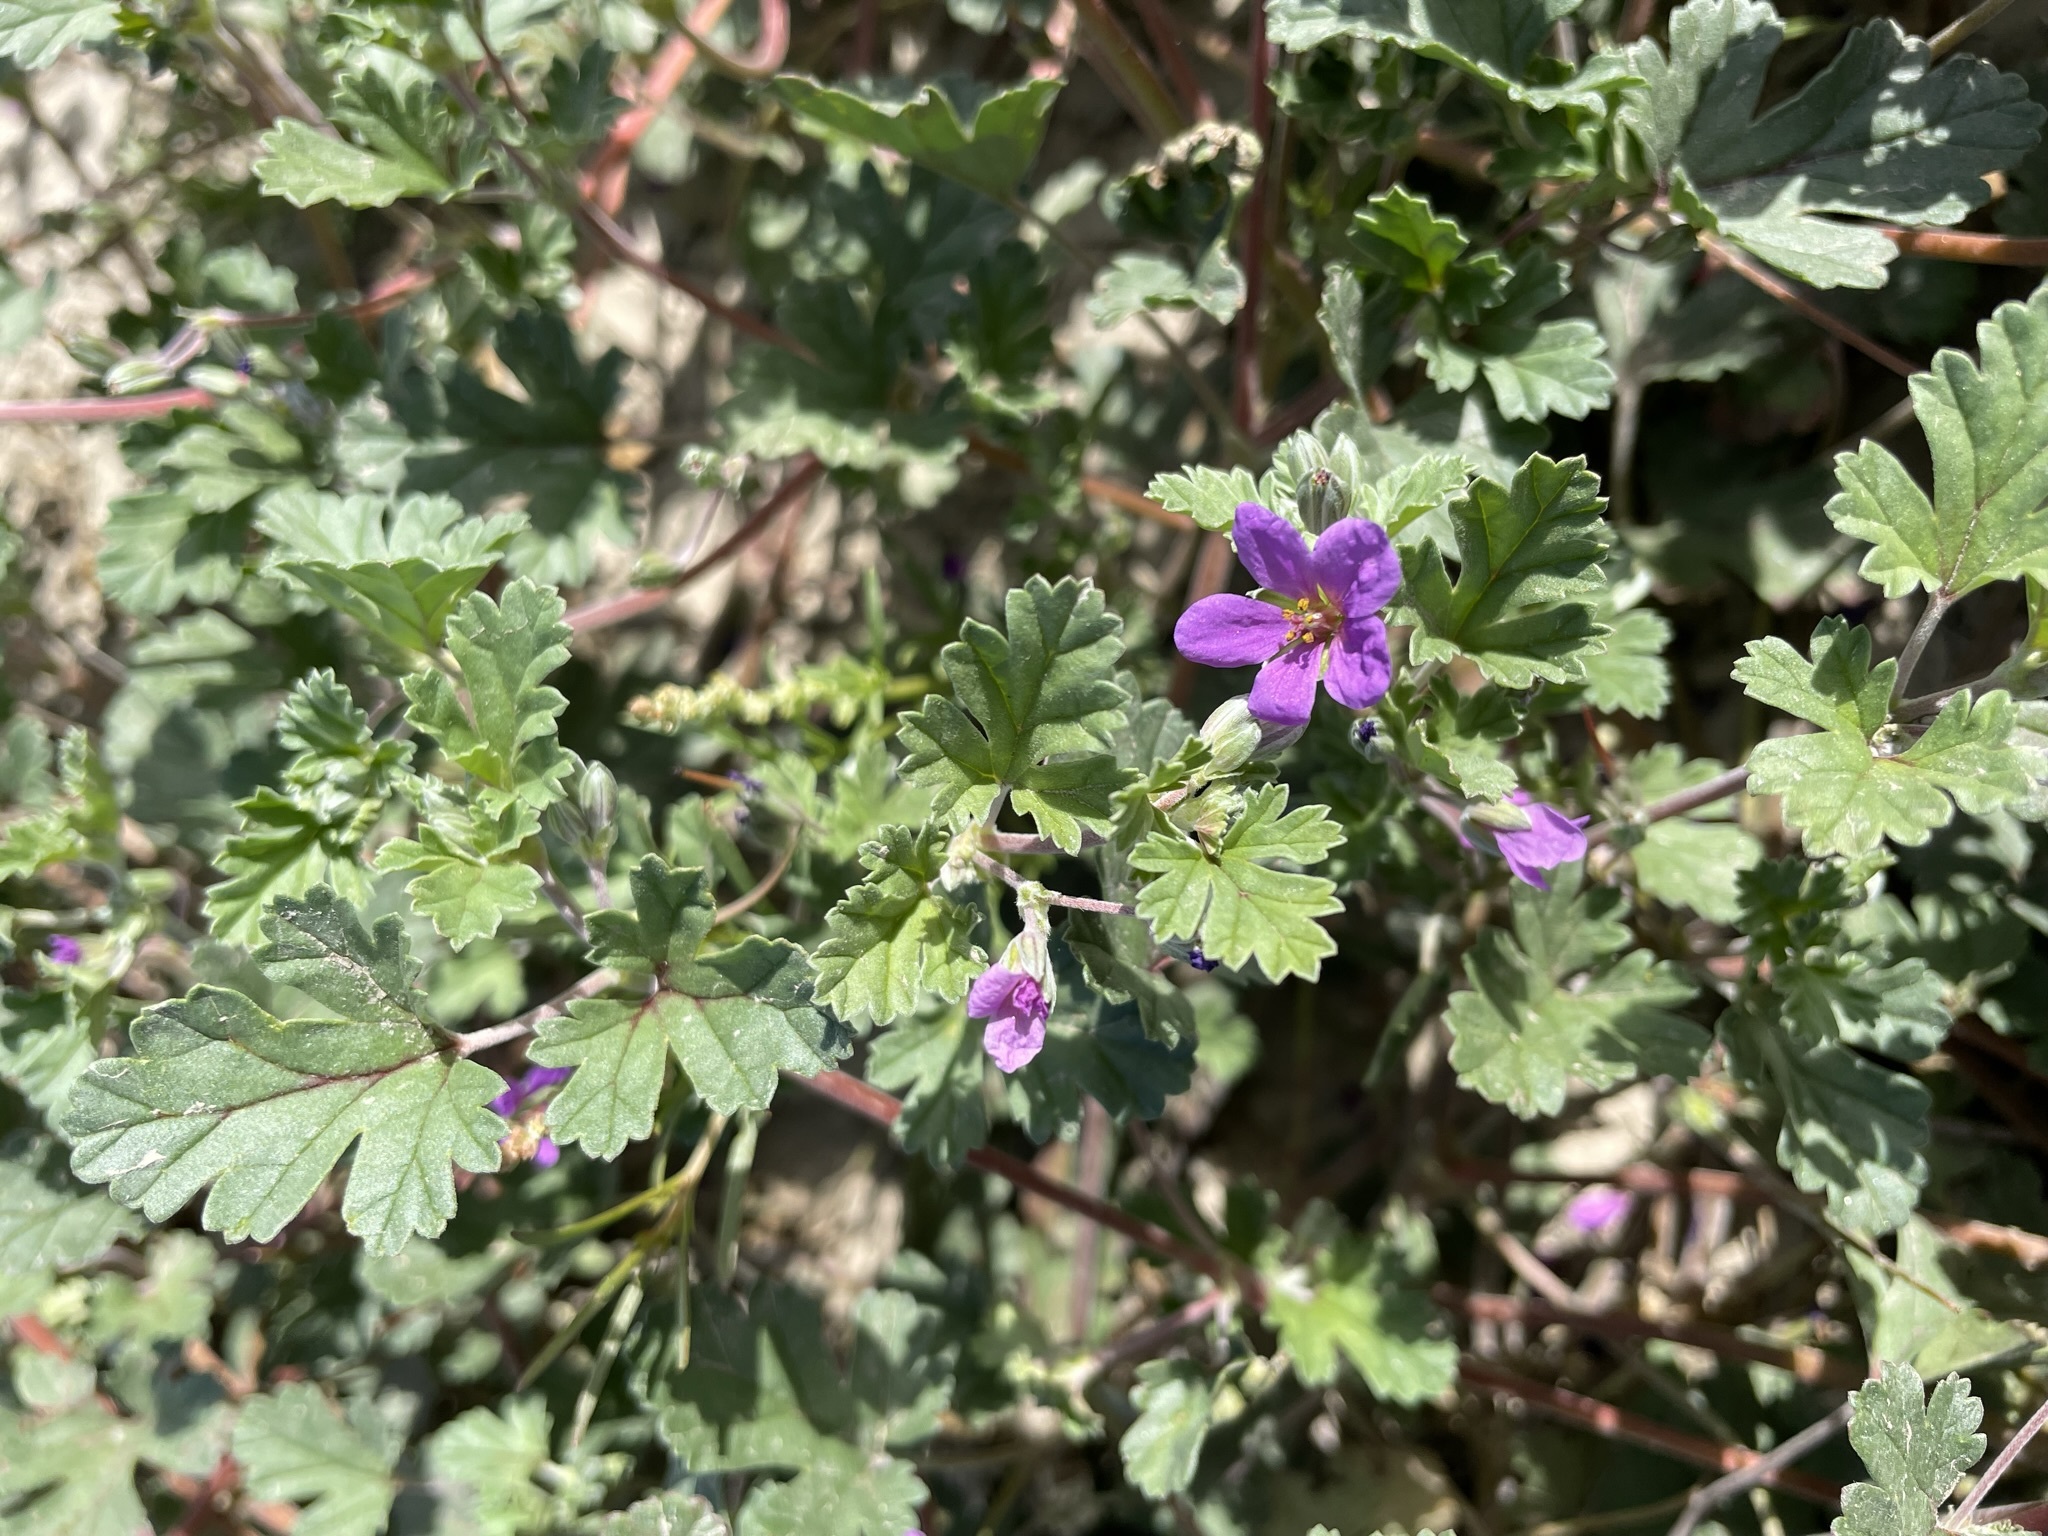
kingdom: Plantae
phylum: Tracheophyta
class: Magnoliopsida
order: Geraniales
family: Geraniaceae
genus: Erodium
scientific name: Erodium texanum
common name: Texas stork's-bill
